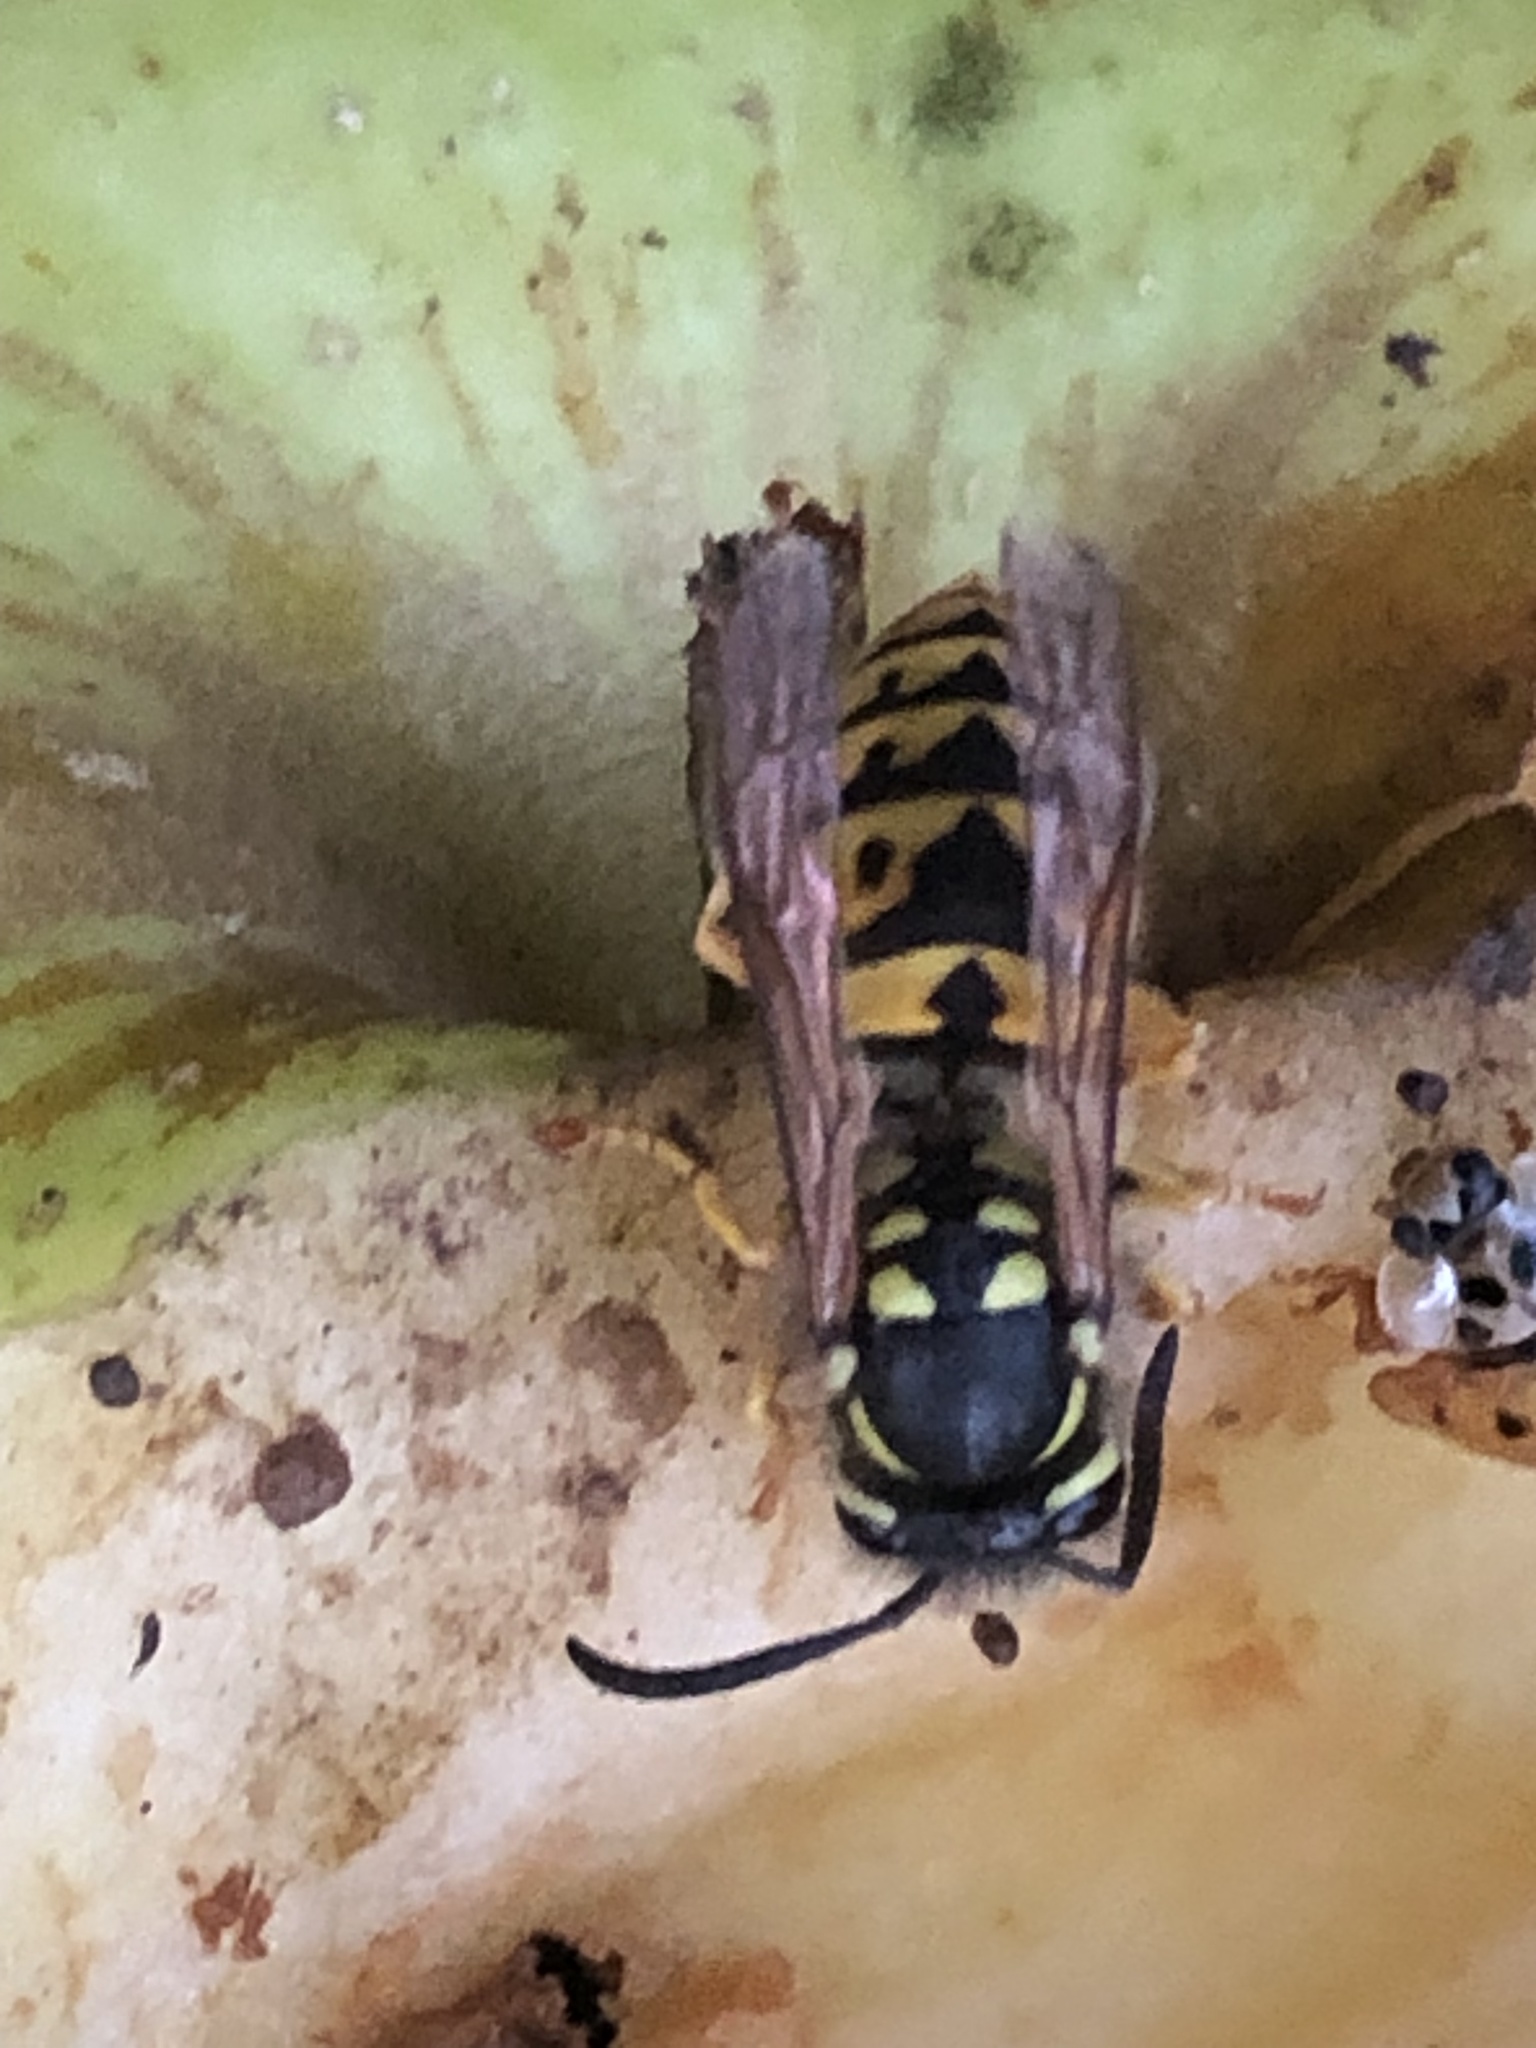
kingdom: Animalia
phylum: Arthropoda
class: Insecta
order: Hymenoptera
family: Vespidae
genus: Vespula
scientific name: Vespula germanica
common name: German wasp
